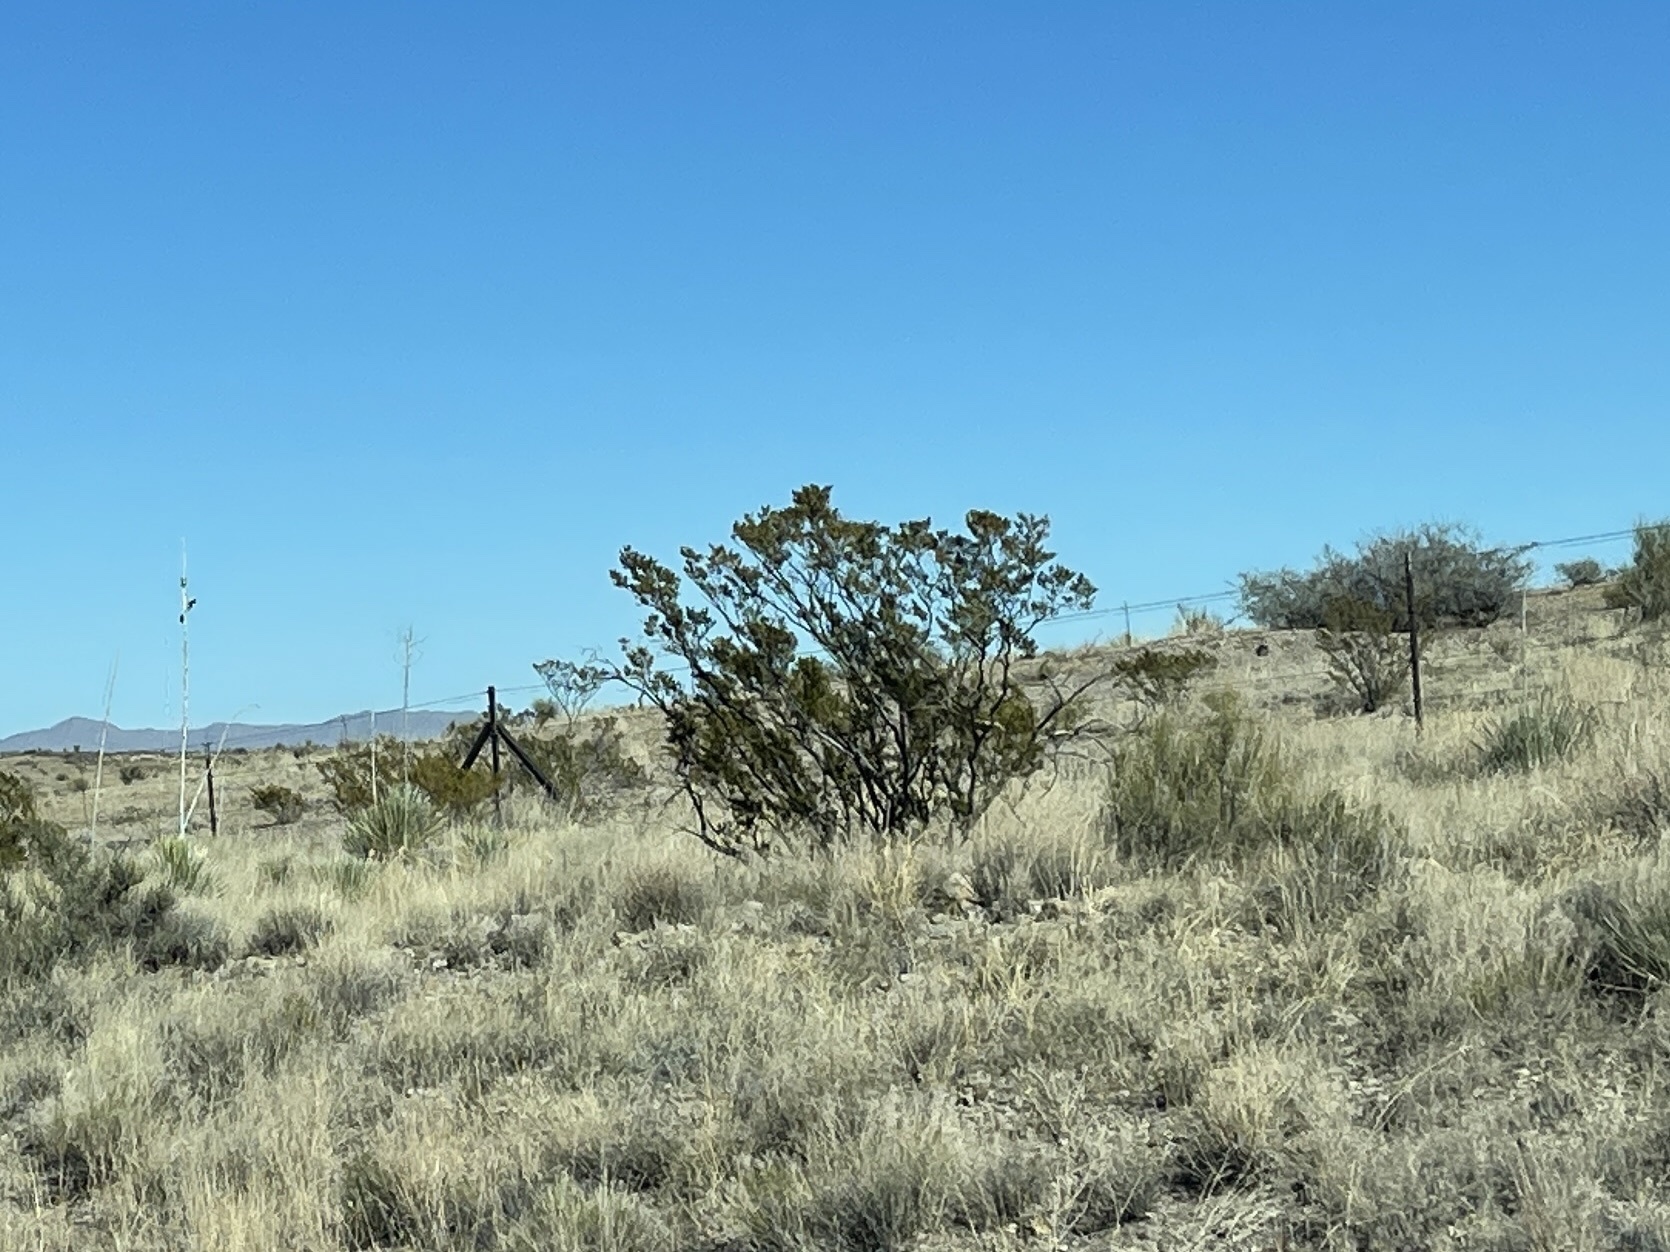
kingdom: Plantae
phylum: Tracheophyta
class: Magnoliopsida
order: Zygophyllales
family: Zygophyllaceae
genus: Larrea
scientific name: Larrea tridentata
